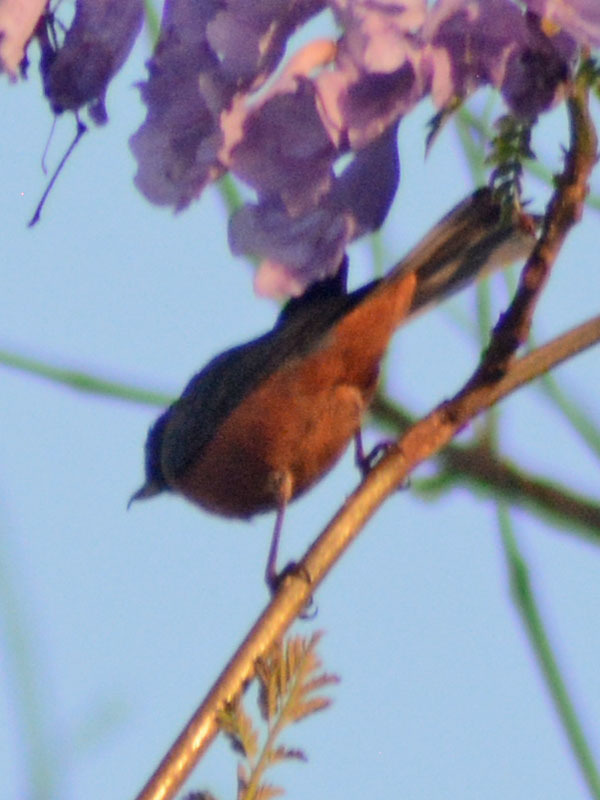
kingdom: Animalia
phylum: Chordata
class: Aves
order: Passeriformes
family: Thraupidae
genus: Diglossa
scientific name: Diglossa baritula
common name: Cinnamon-bellied flowerpiercer
